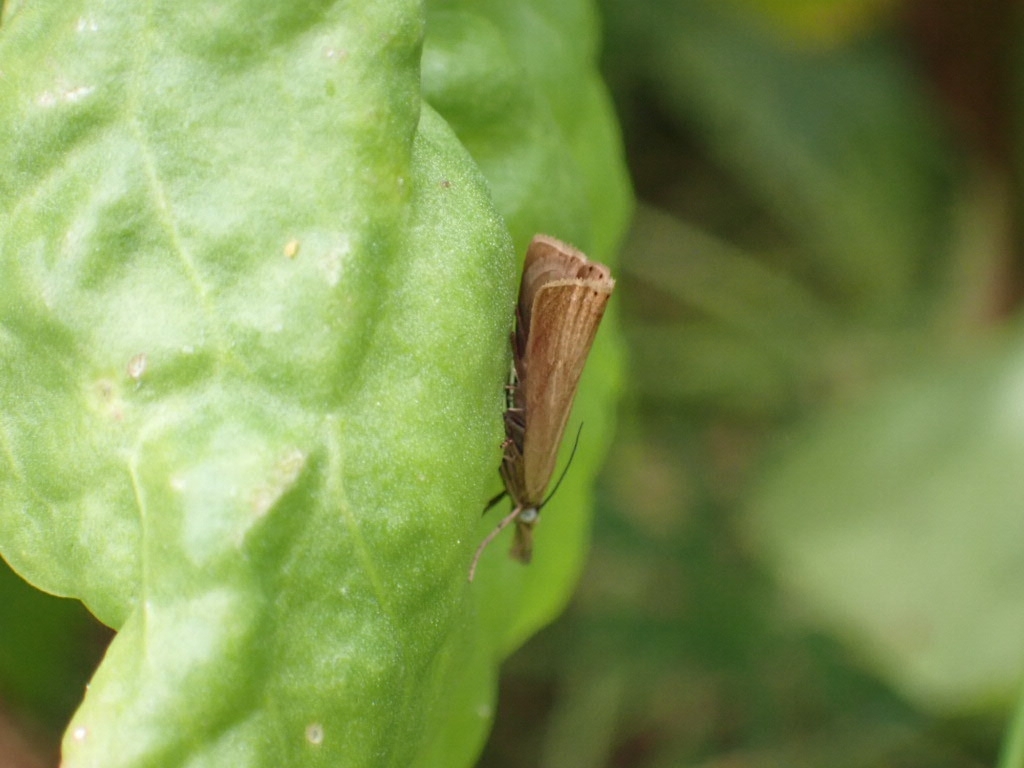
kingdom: Animalia
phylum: Arthropoda
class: Insecta
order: Lepidoptera
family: Crambidae
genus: Chrysoteuchia
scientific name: Chrysoteuchia culmella
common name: Garden grass-veneer
